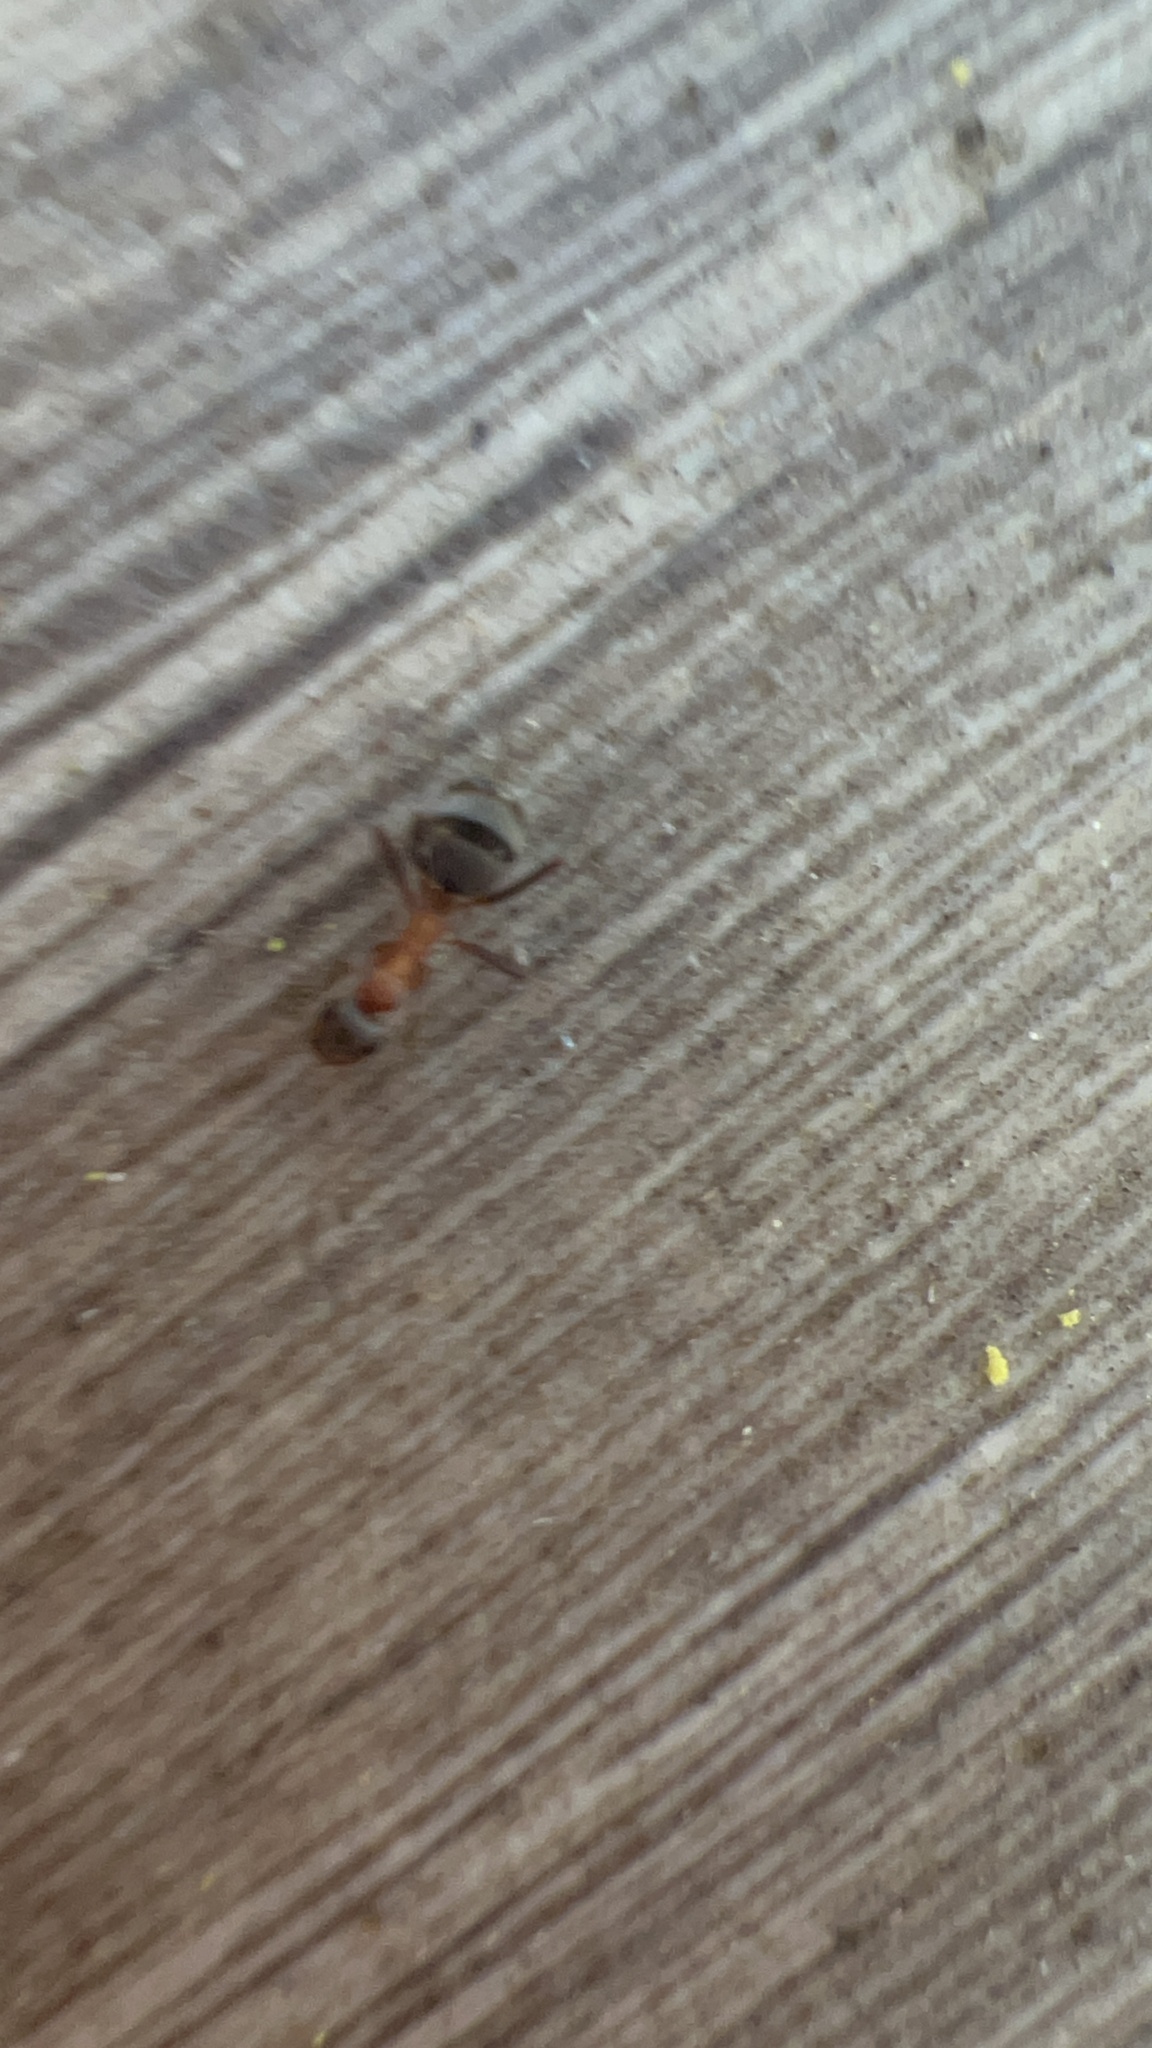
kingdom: Animalia
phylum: Arthropoda
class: Insecta
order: Hymenoptera
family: Formicidae
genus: Formica
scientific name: Formica
